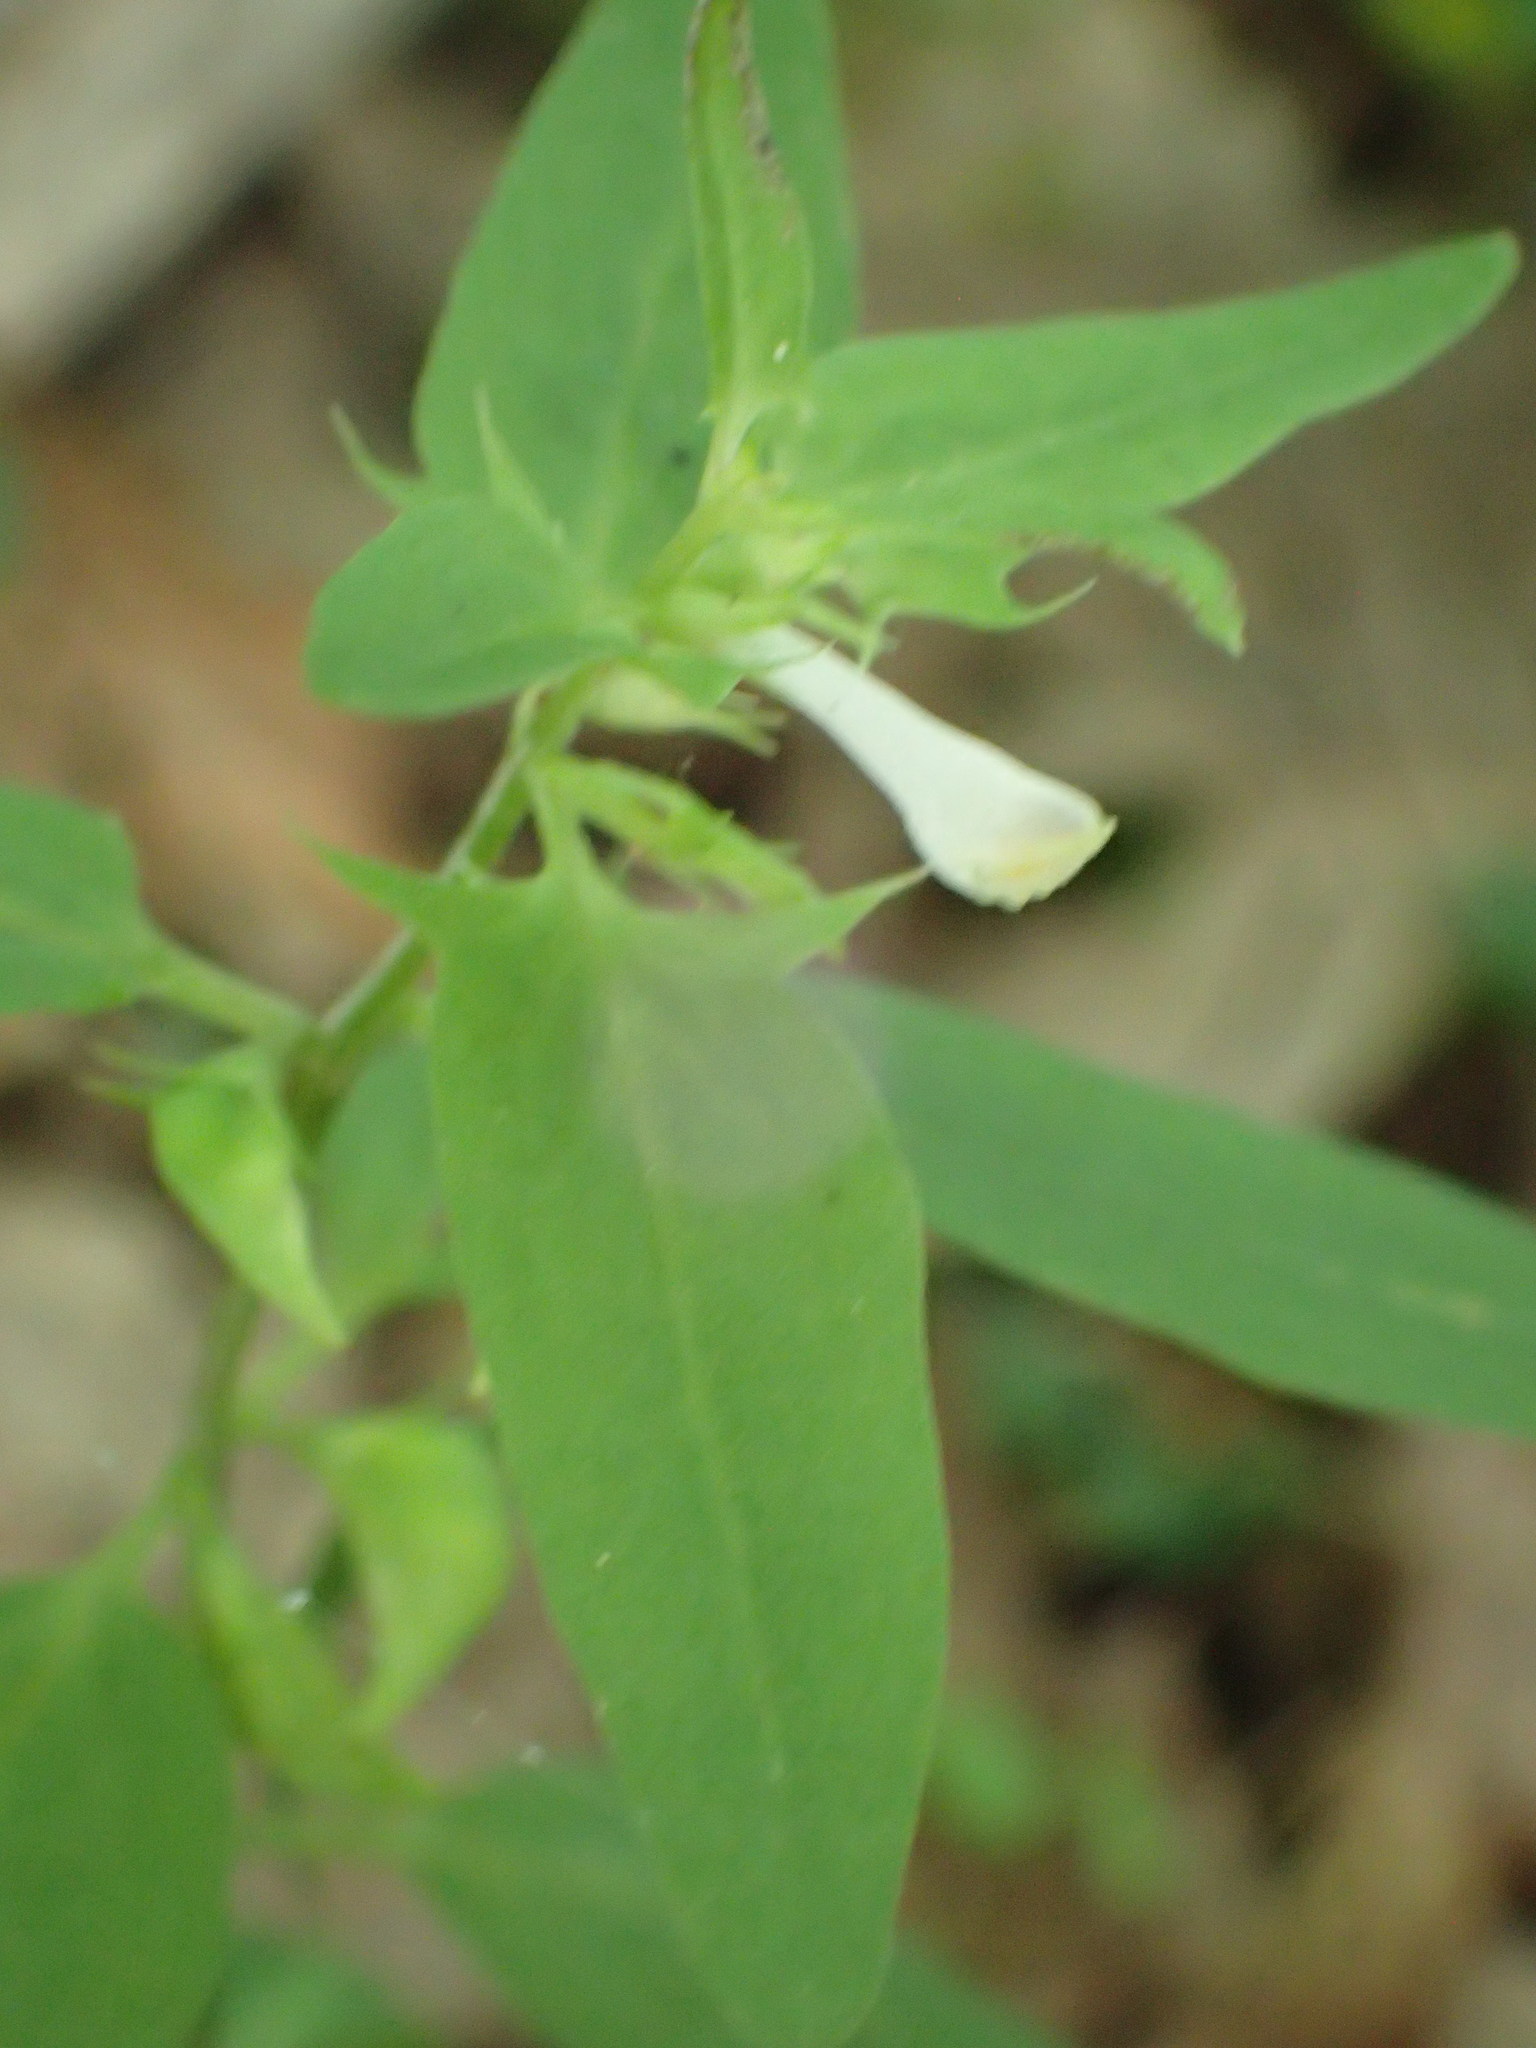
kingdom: Plantae
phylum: Tracheophyta
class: Magnoliopsida
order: Lamiales
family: Orobanchaceae
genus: Melampyrum
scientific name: Melampyrum lineare
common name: American cow-wheat
